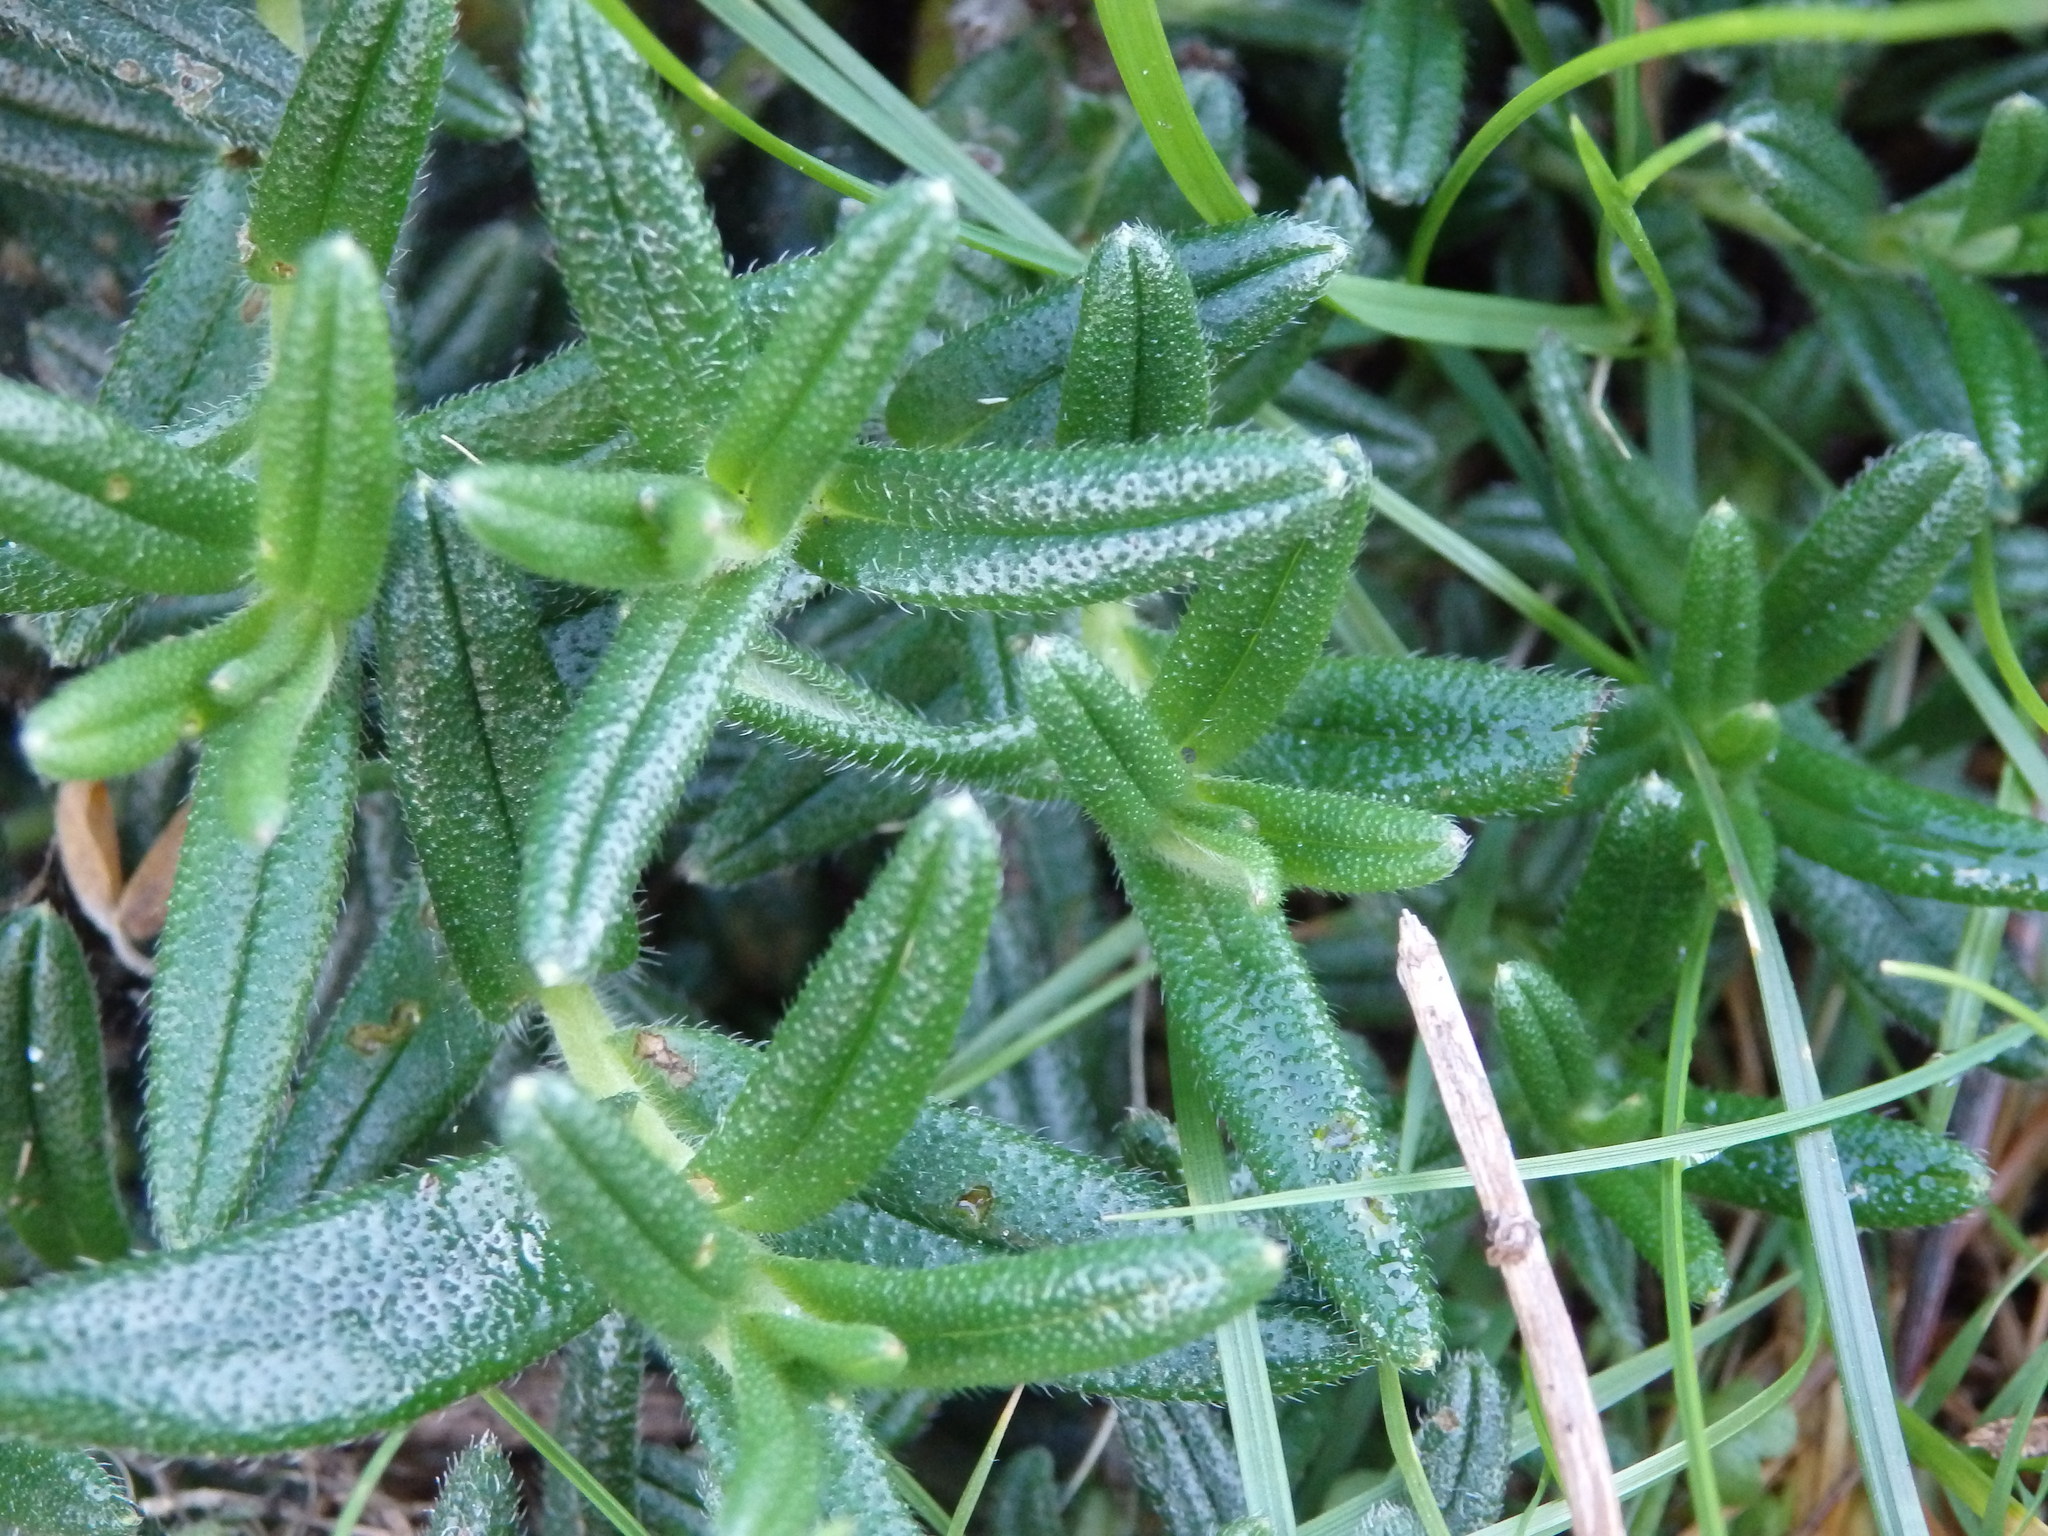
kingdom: Plantae
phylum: Tracheophyta
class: Magnoliopsida
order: Boraginales
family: Boraginaceae
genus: Glandora
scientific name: Glandora prostrata
